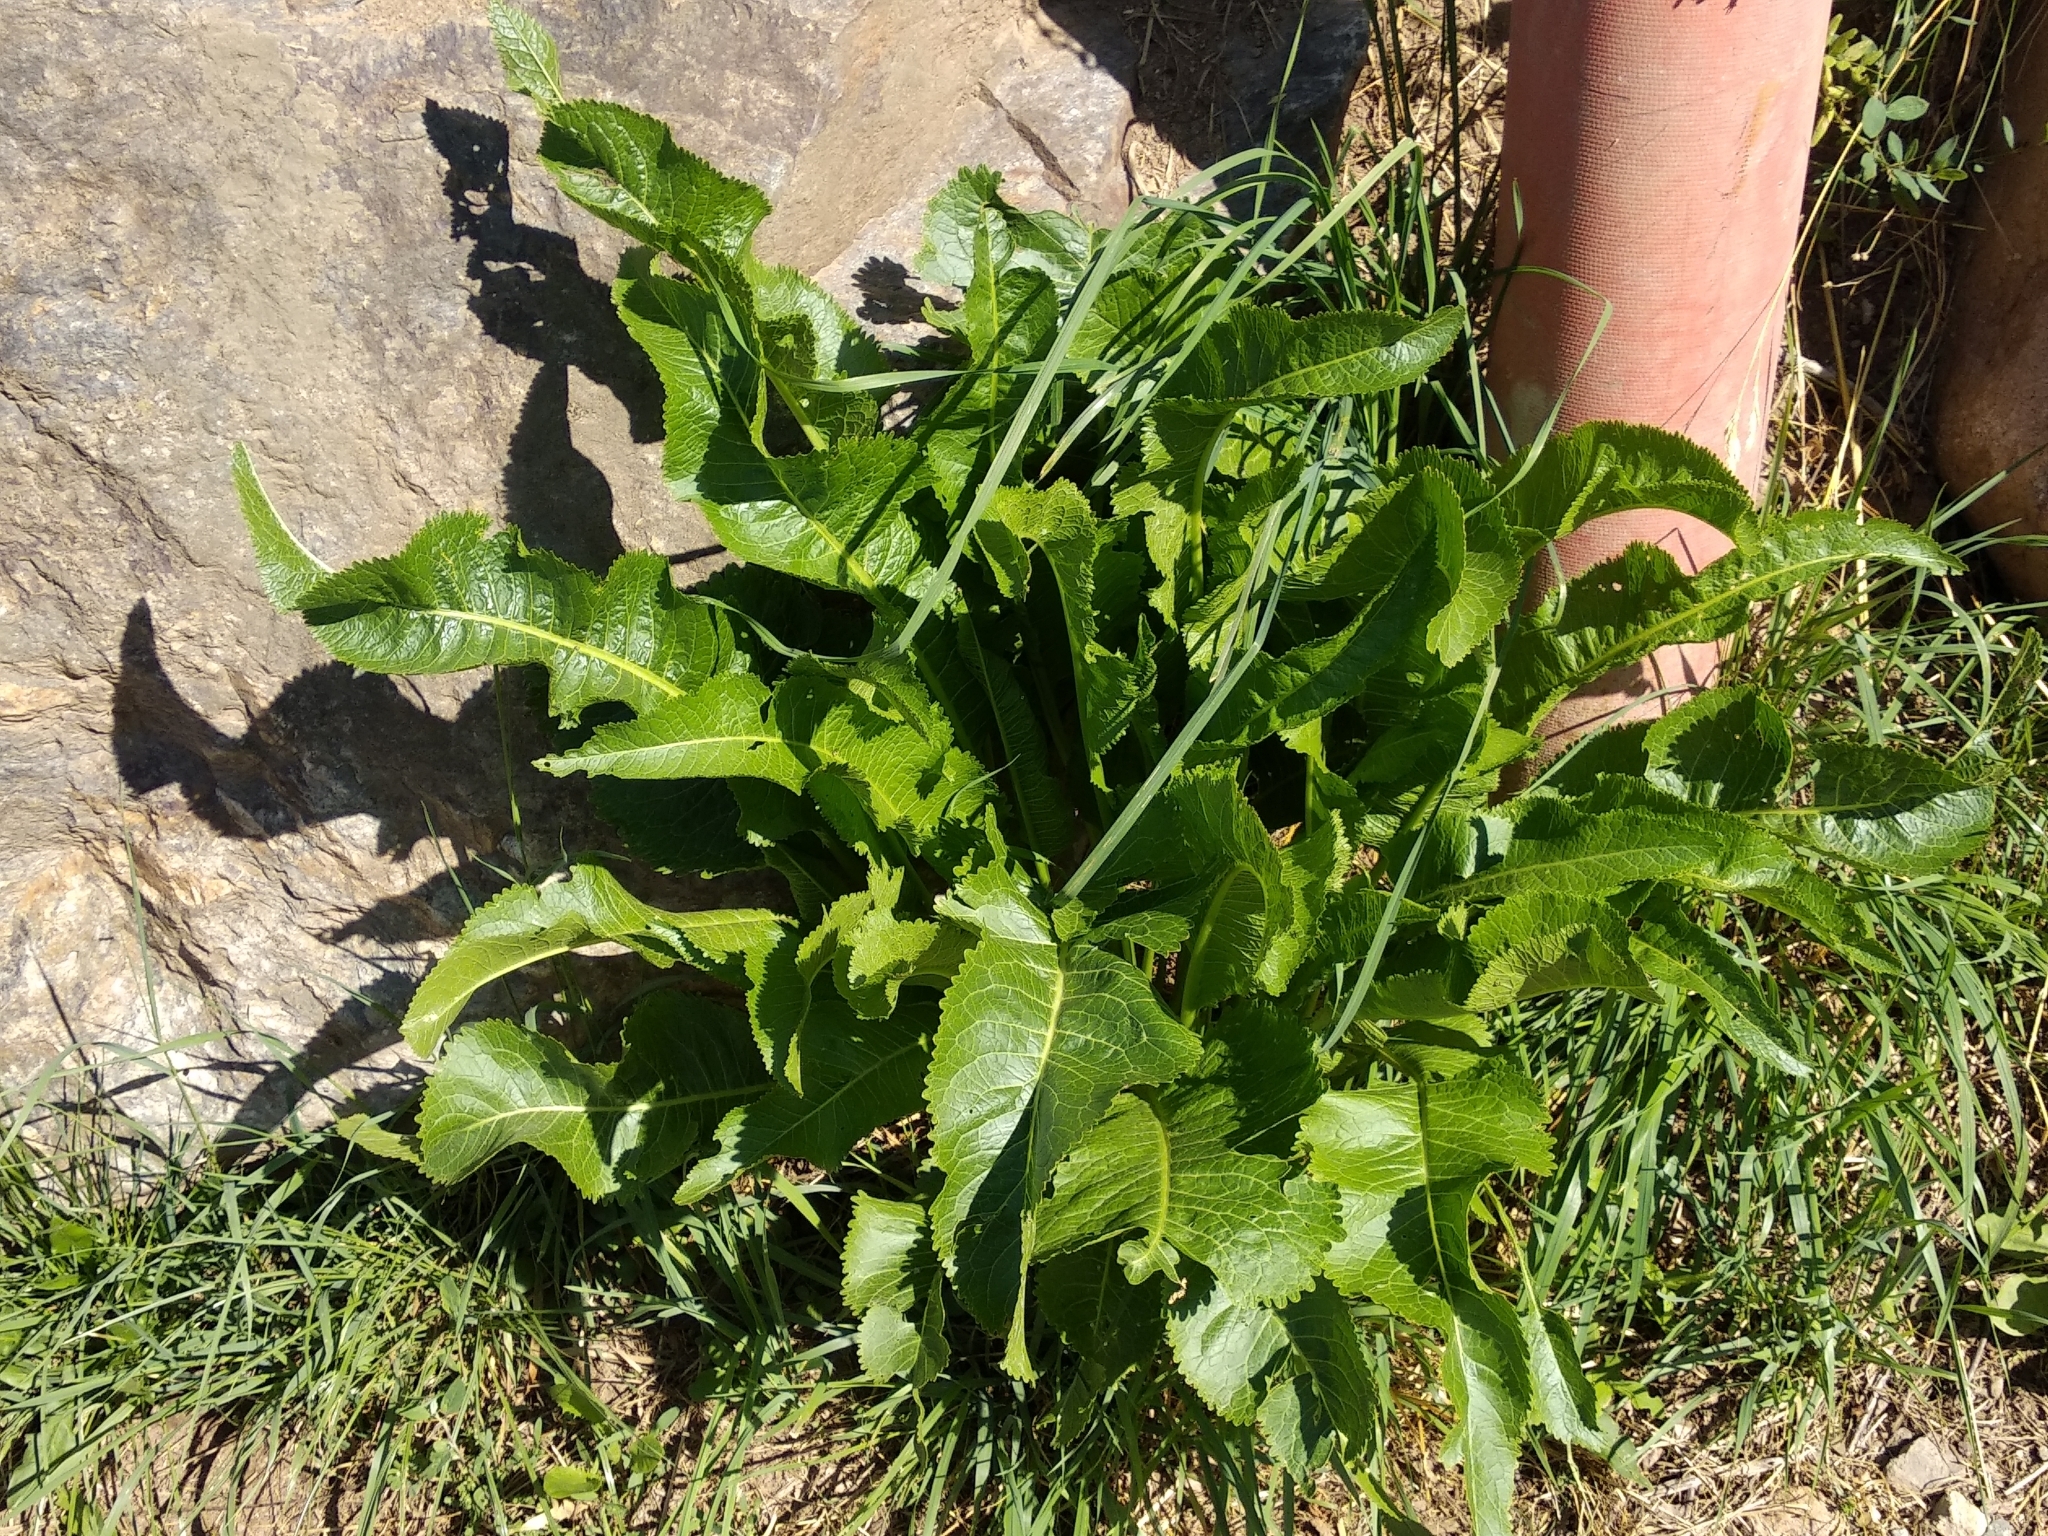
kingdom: Plantae
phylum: Tracheophyta
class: Magnoliopsida
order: Brassicales
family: Brassicaceae
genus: Armoracia
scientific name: Armoracia rusticana
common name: Horseradish
